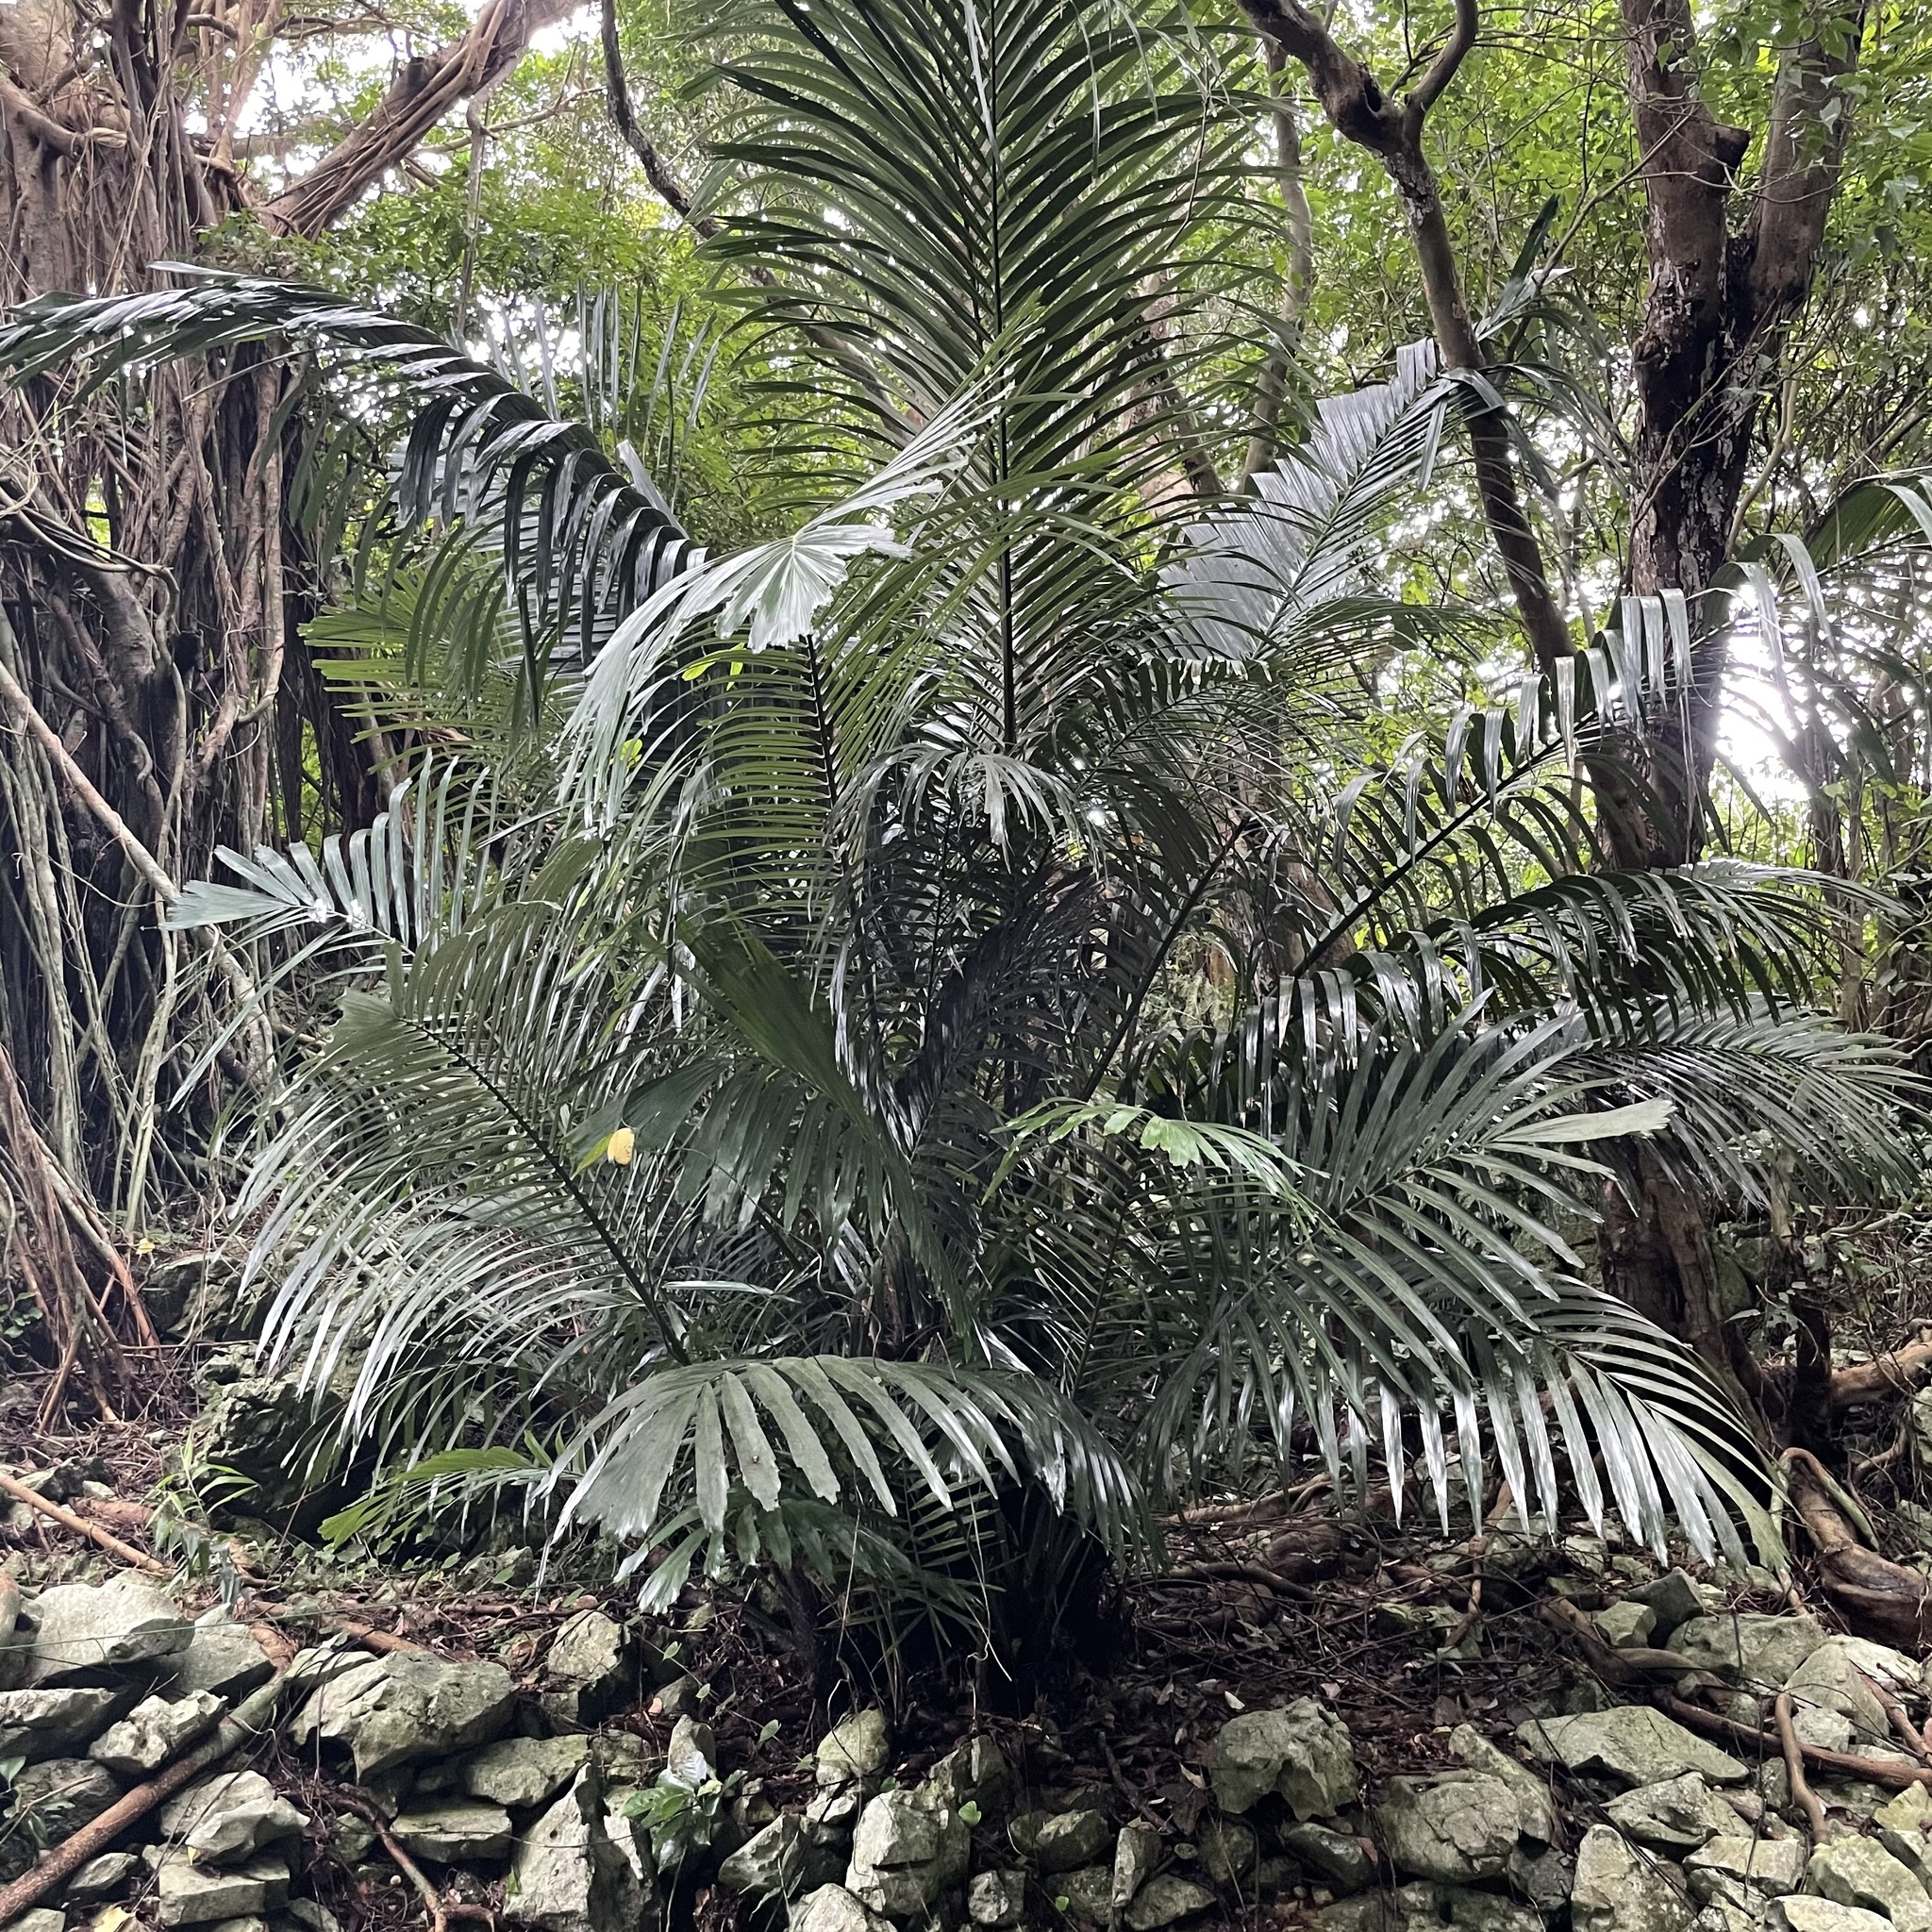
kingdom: Plantae
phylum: Tracheophyta
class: Liliopsida
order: Arecales
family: Arecaceae
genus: Arenga
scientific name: Arenga ryukyuensis
